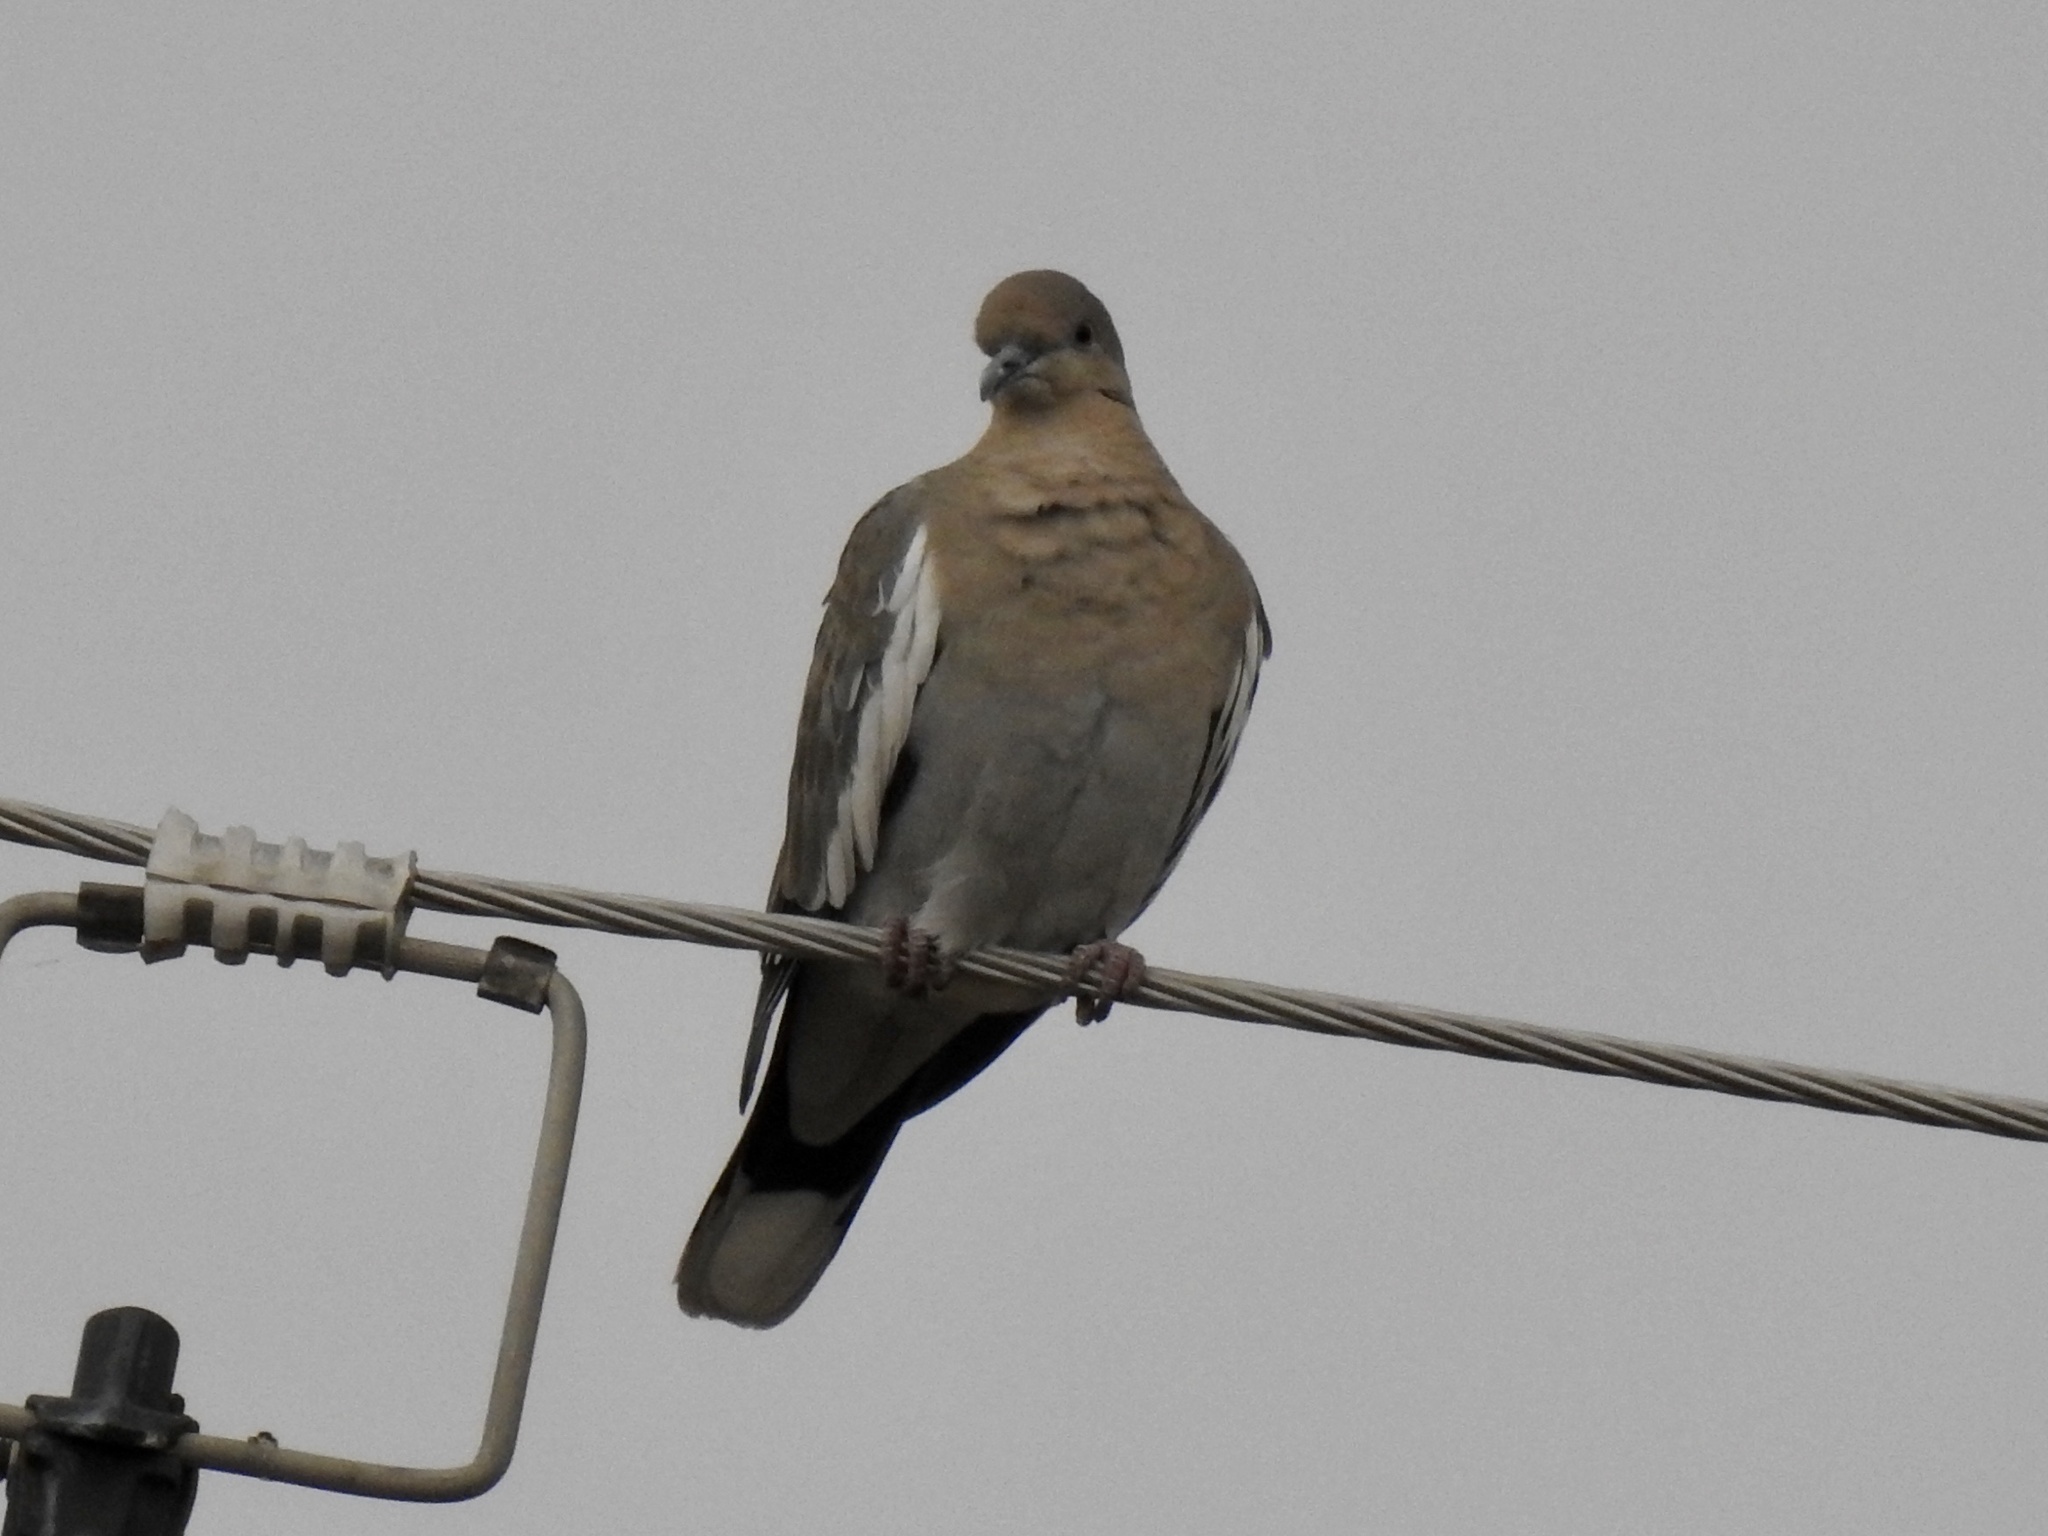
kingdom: Animalia
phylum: Chordata
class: Aves
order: Columbiformes
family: Columbidae
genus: Zenaida
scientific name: Zenaida asiatica
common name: White-winged dove
